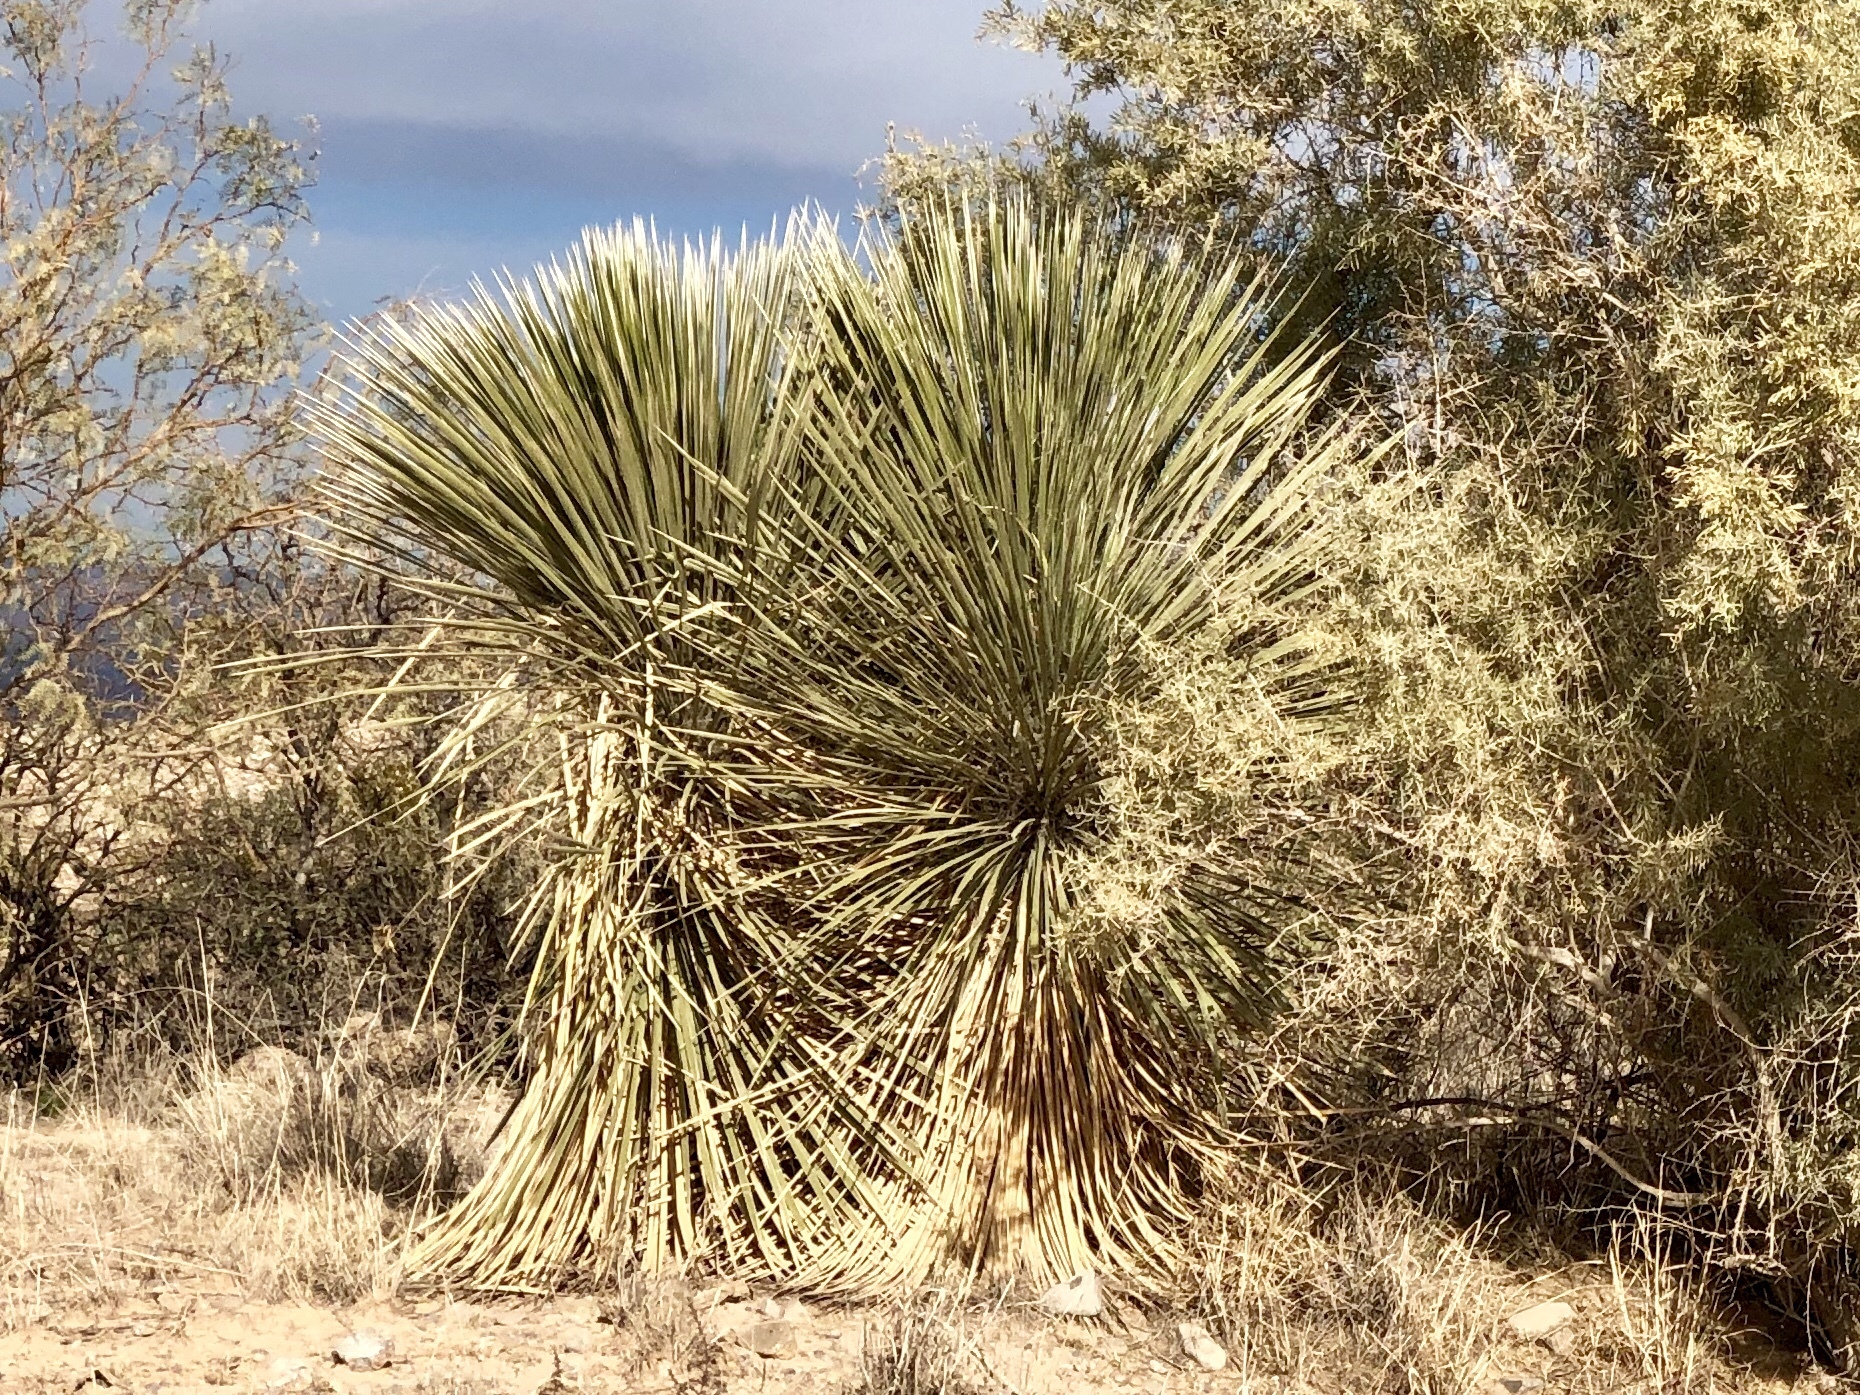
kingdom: Plantae
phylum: Tracheophyta
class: Liliopsida
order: Asparagales
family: Asparagaceae
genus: Yucca
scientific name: Yucca elata
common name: Palmella
